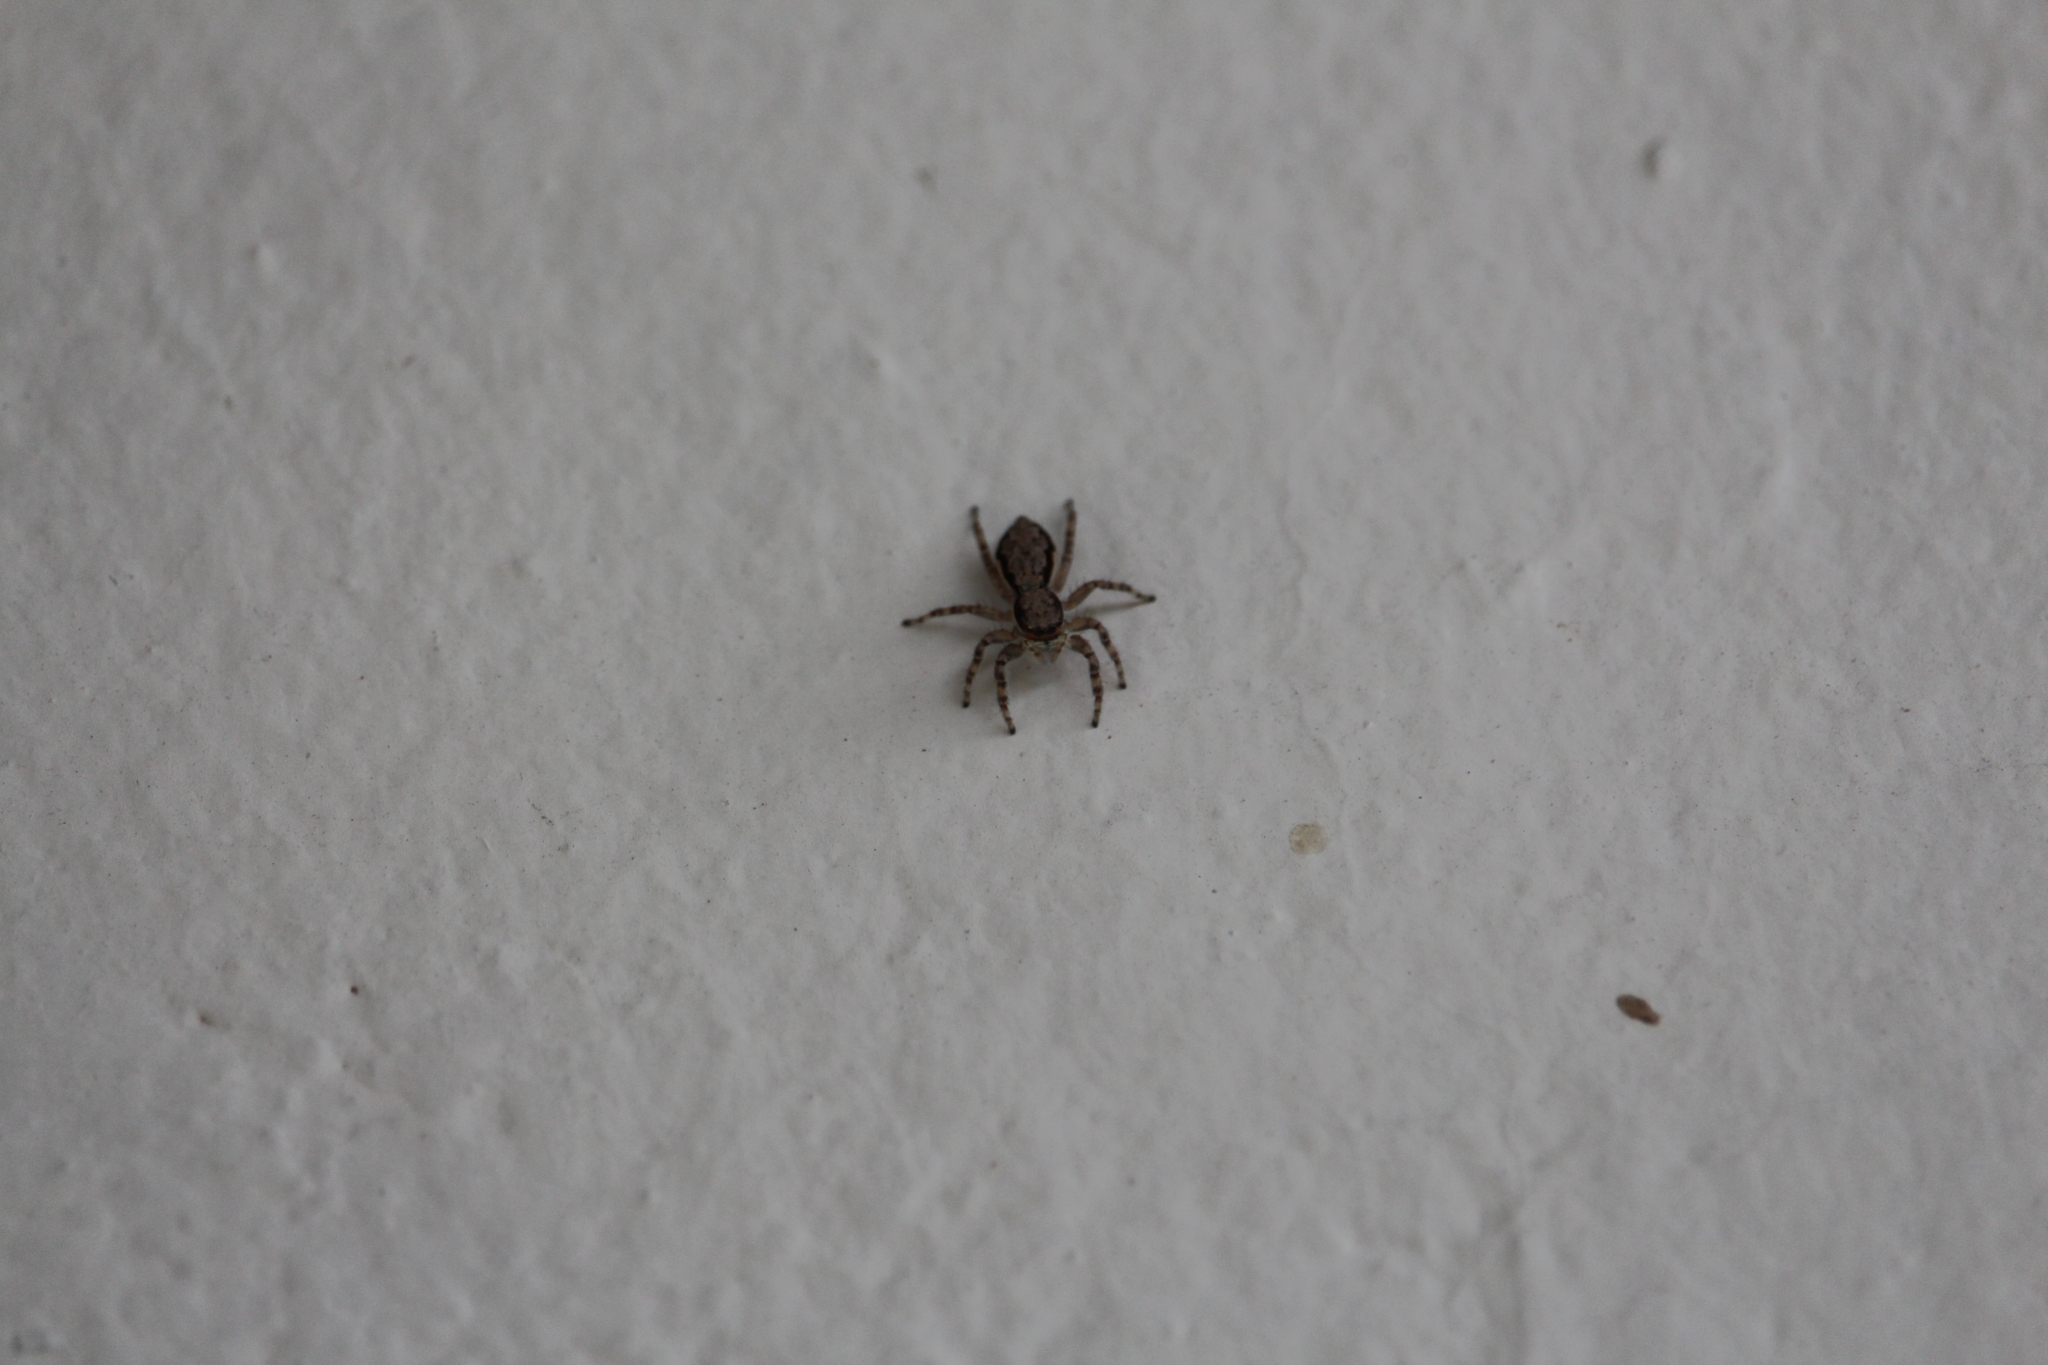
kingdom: Animalia
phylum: Arthropoda
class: Arachnida
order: Araneae
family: Salticidae
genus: Menemerus
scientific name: Menemerus bivittatus
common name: Gray wall jumper
